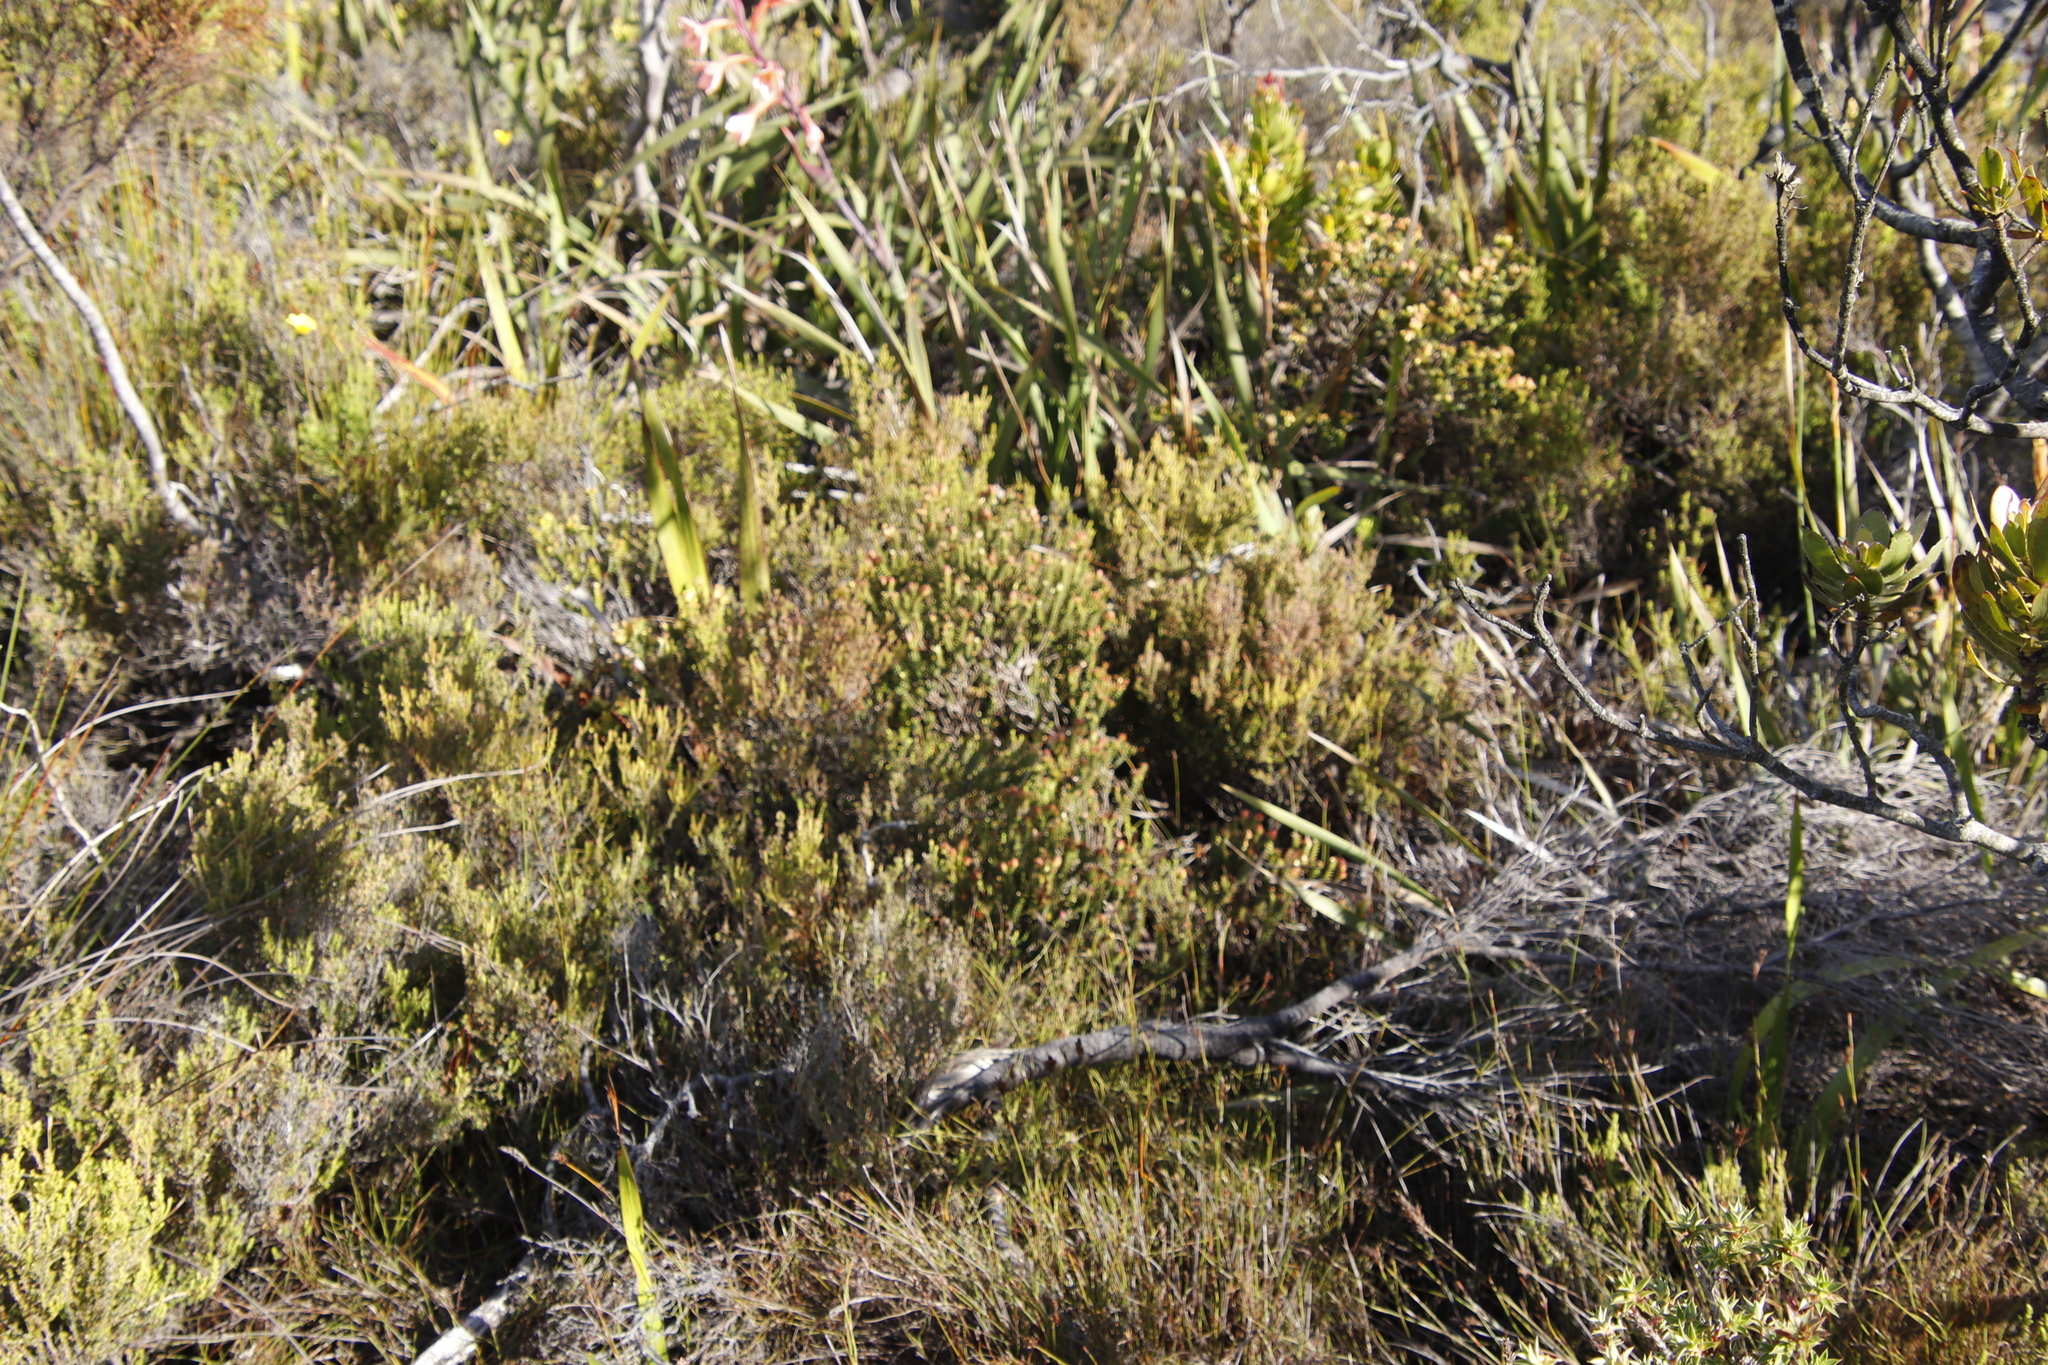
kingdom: Plantae
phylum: Tracheophyta
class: Magnoliopsida
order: Myrtales
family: Penaeaceae
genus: Penaea
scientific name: Penaea mucronata
